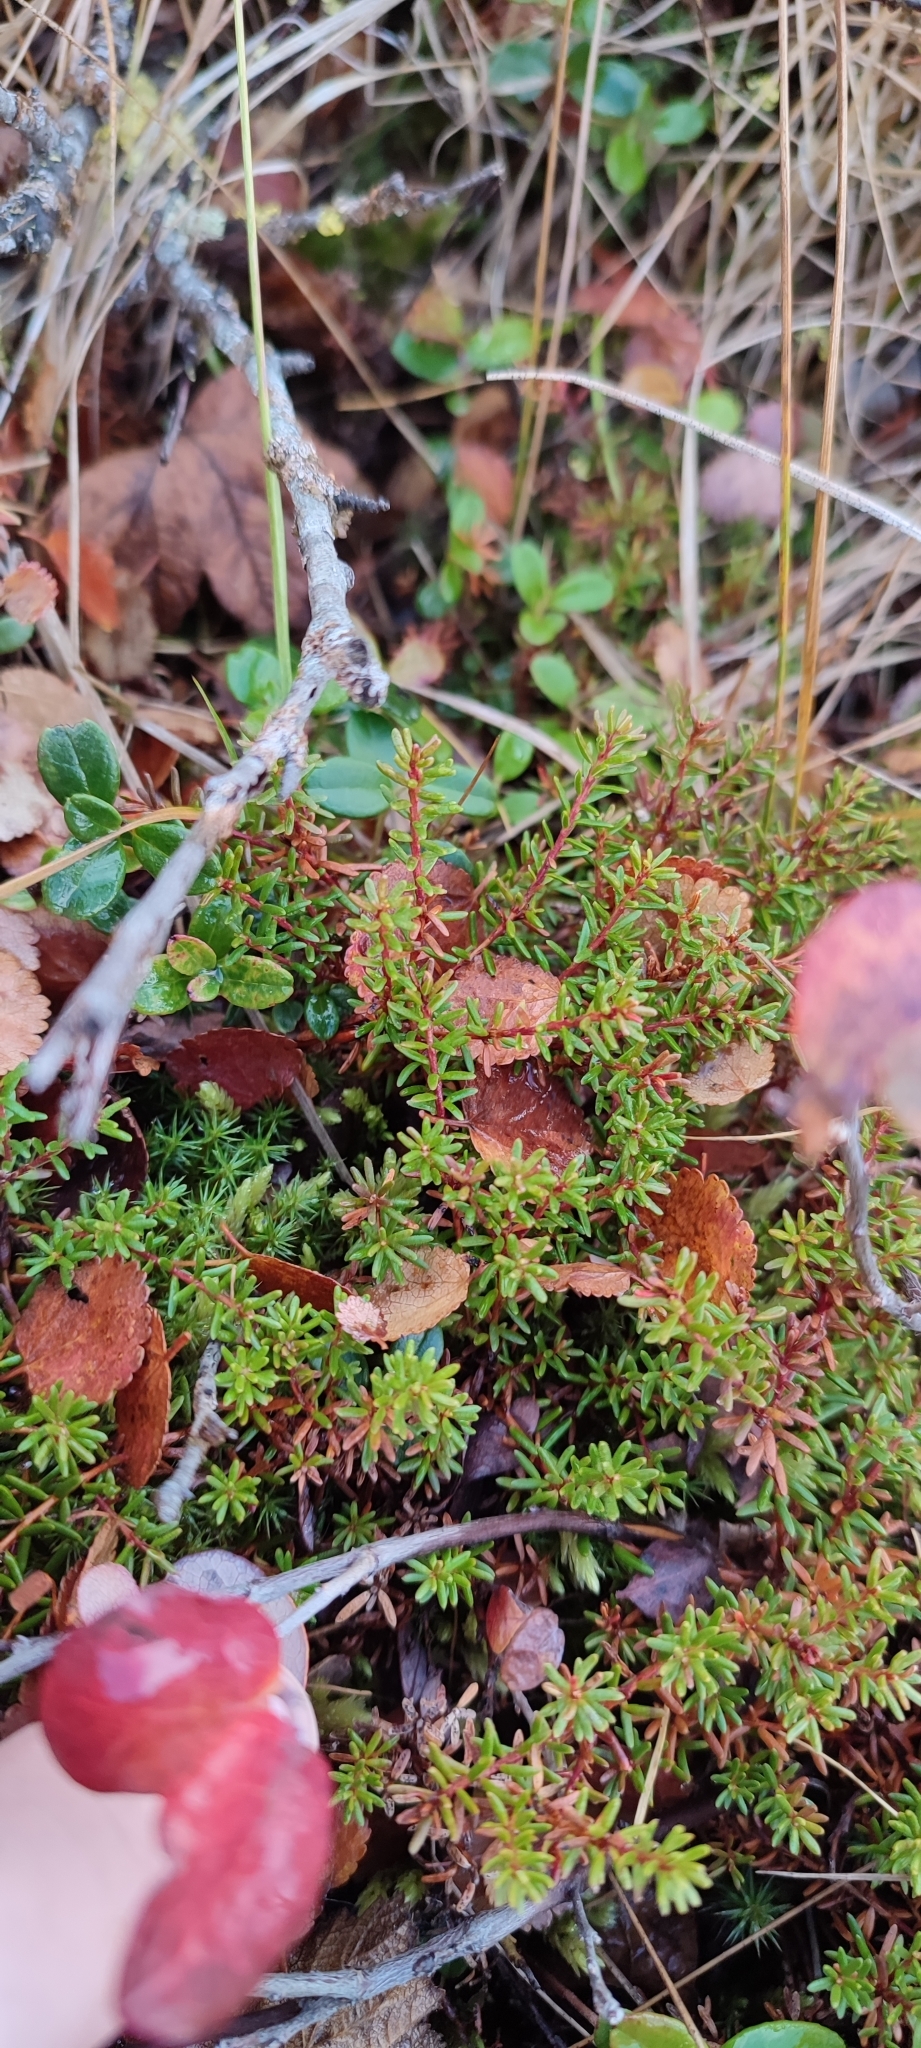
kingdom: Plantae
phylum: Tracheophyta
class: Magnoliopsida
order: Ericales
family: Ericaceae
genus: Empetrum
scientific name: Empetrum nigrum
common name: Black crowberry
